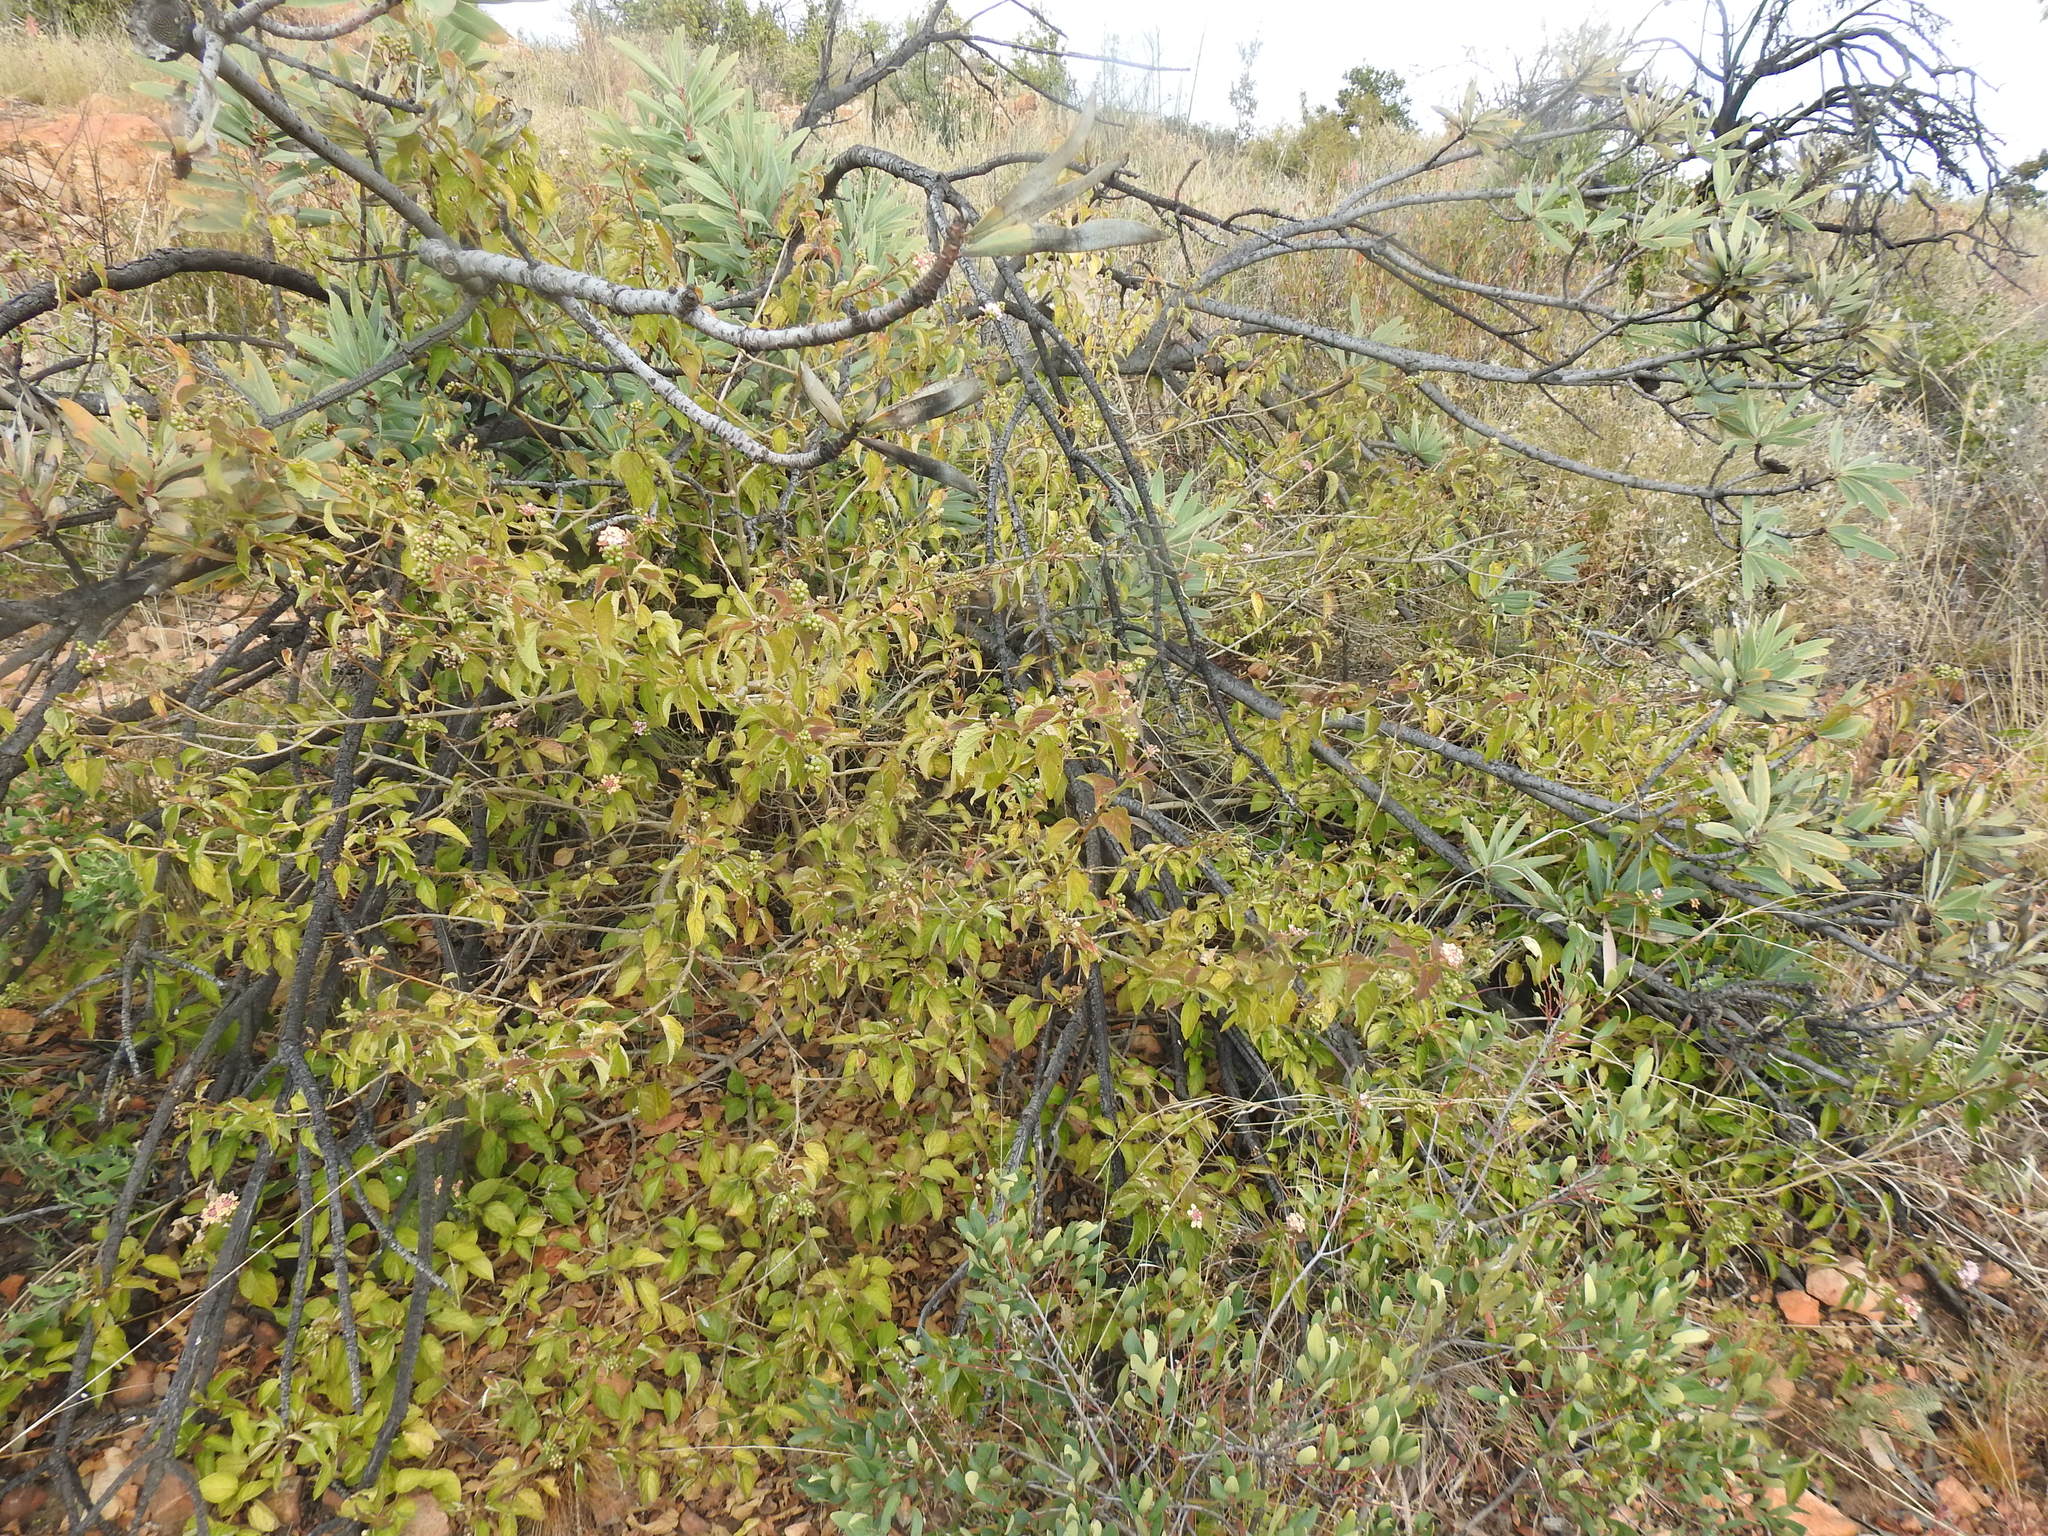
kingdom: Plantae
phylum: Tracheophyta
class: Magnoliopsida
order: Lamiales
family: Verbenaceae
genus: Lantana
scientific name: Lantana camara
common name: Lantana
